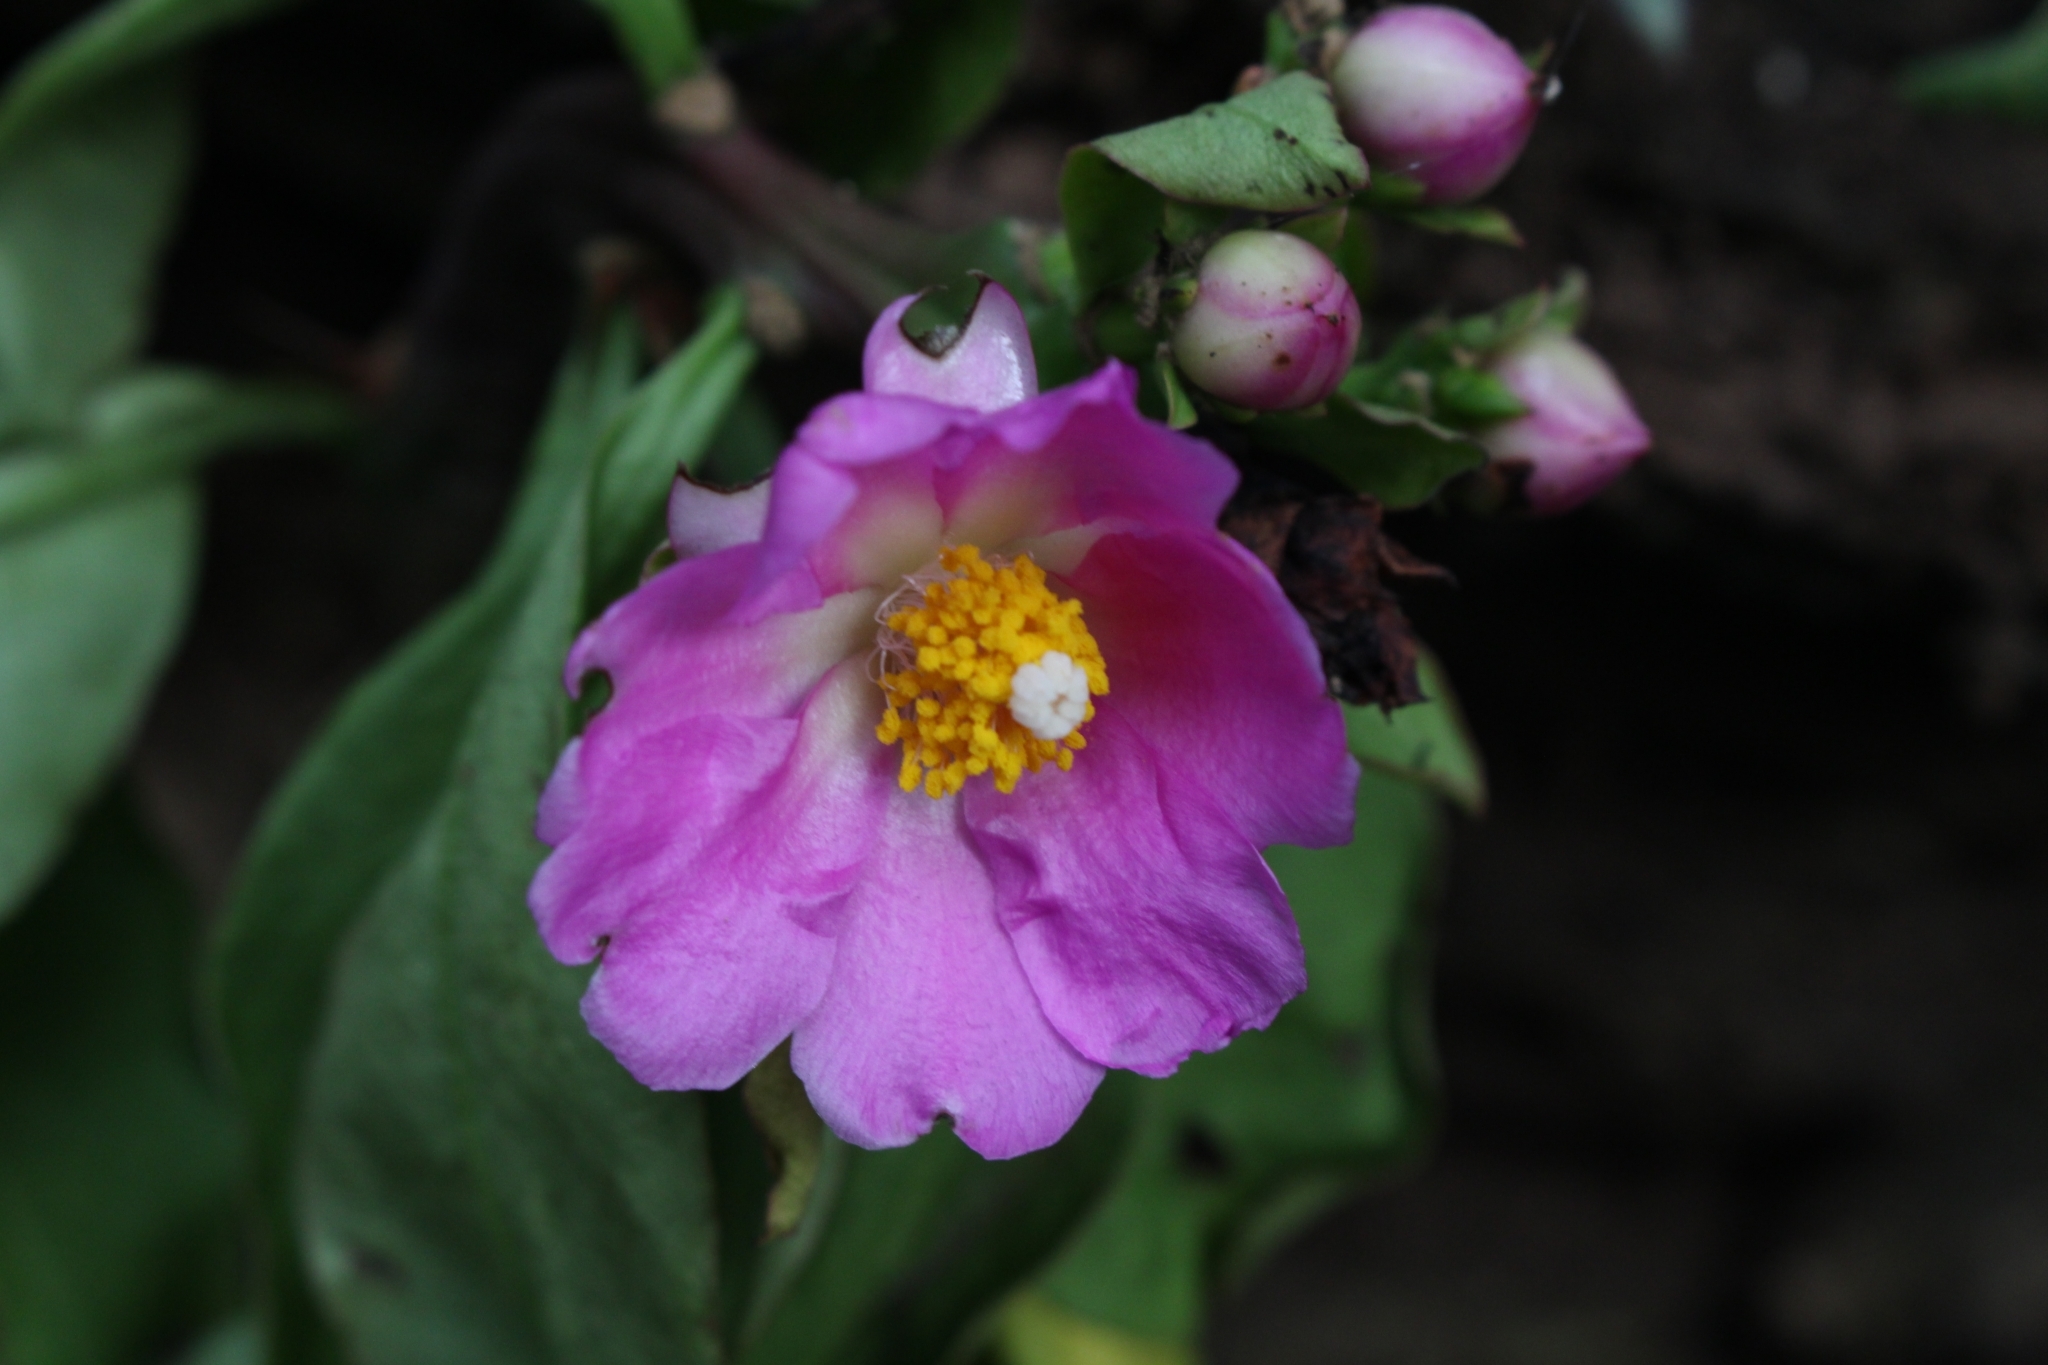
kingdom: Plantae
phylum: Tracheophyta
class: Magnoliopsida
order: Caryophyllales
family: Cactaceae
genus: Pereskia
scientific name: Pereskia grandifolia
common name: Rose cactus
